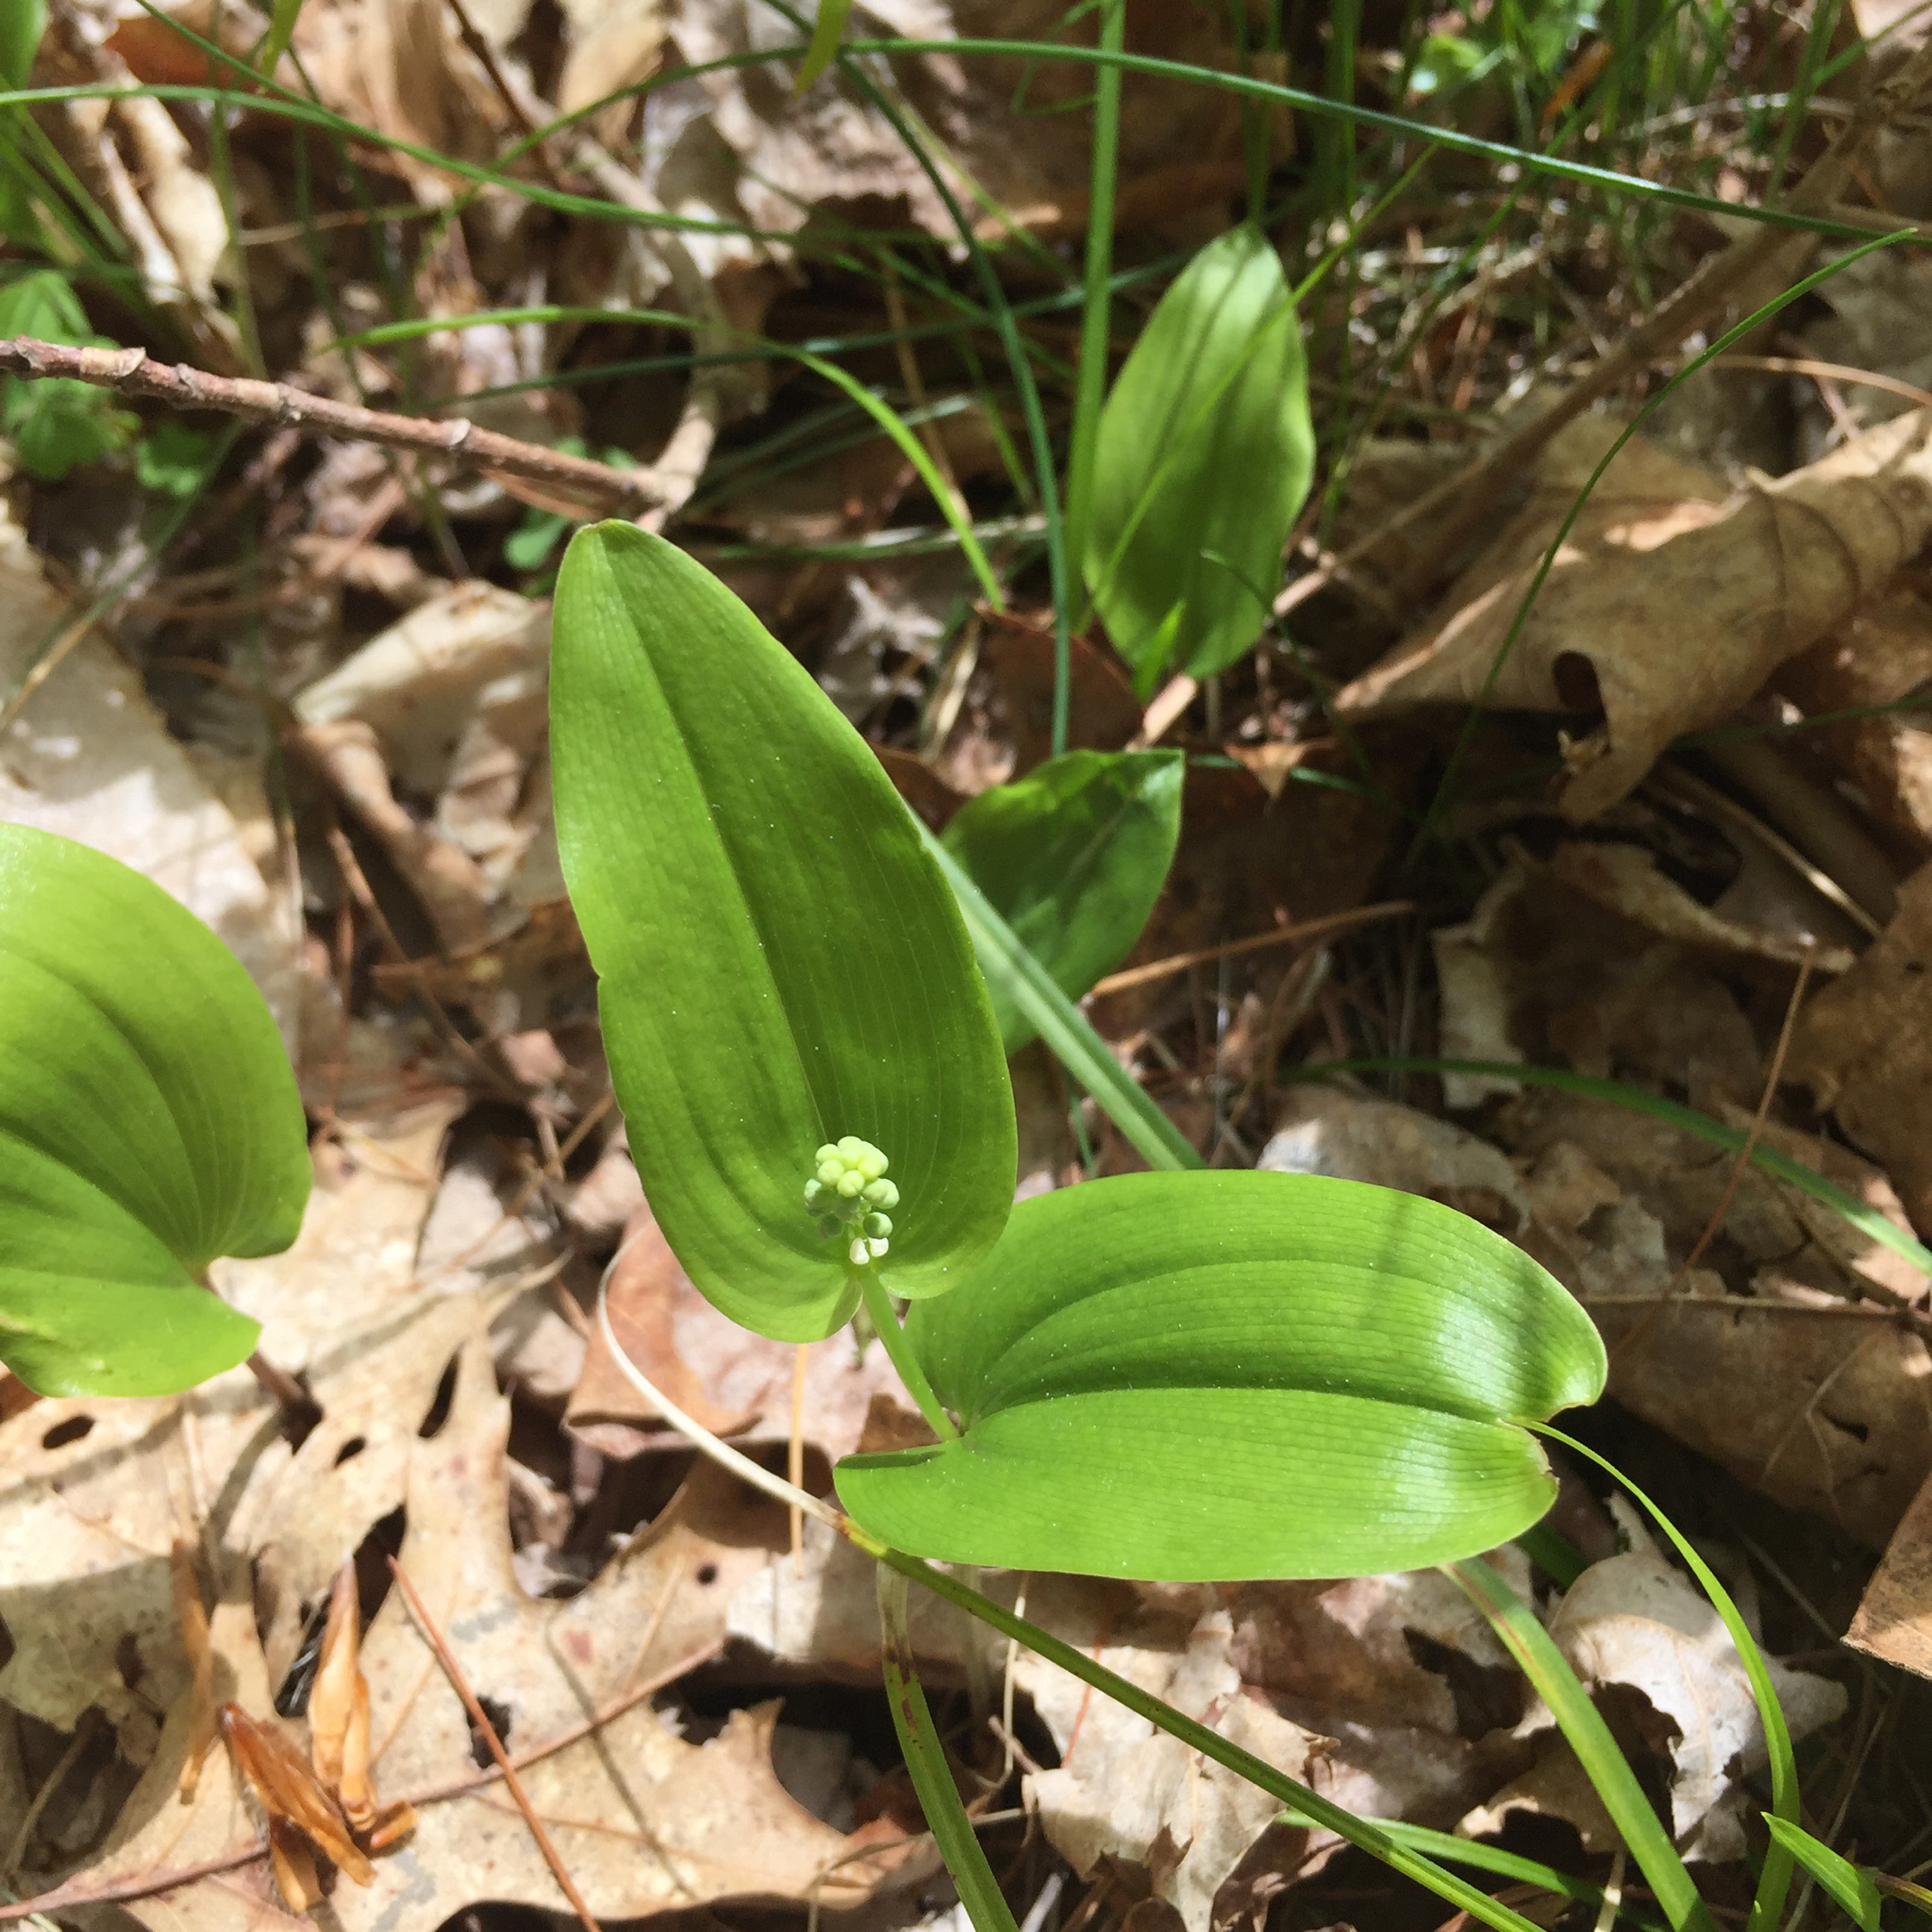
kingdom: Plantae
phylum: Tracheophyta
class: Liliopsida
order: Asparagales
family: Asparagaceae
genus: Maianthemum
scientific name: Maianthemum canadense
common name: False lily-of-the-valley
